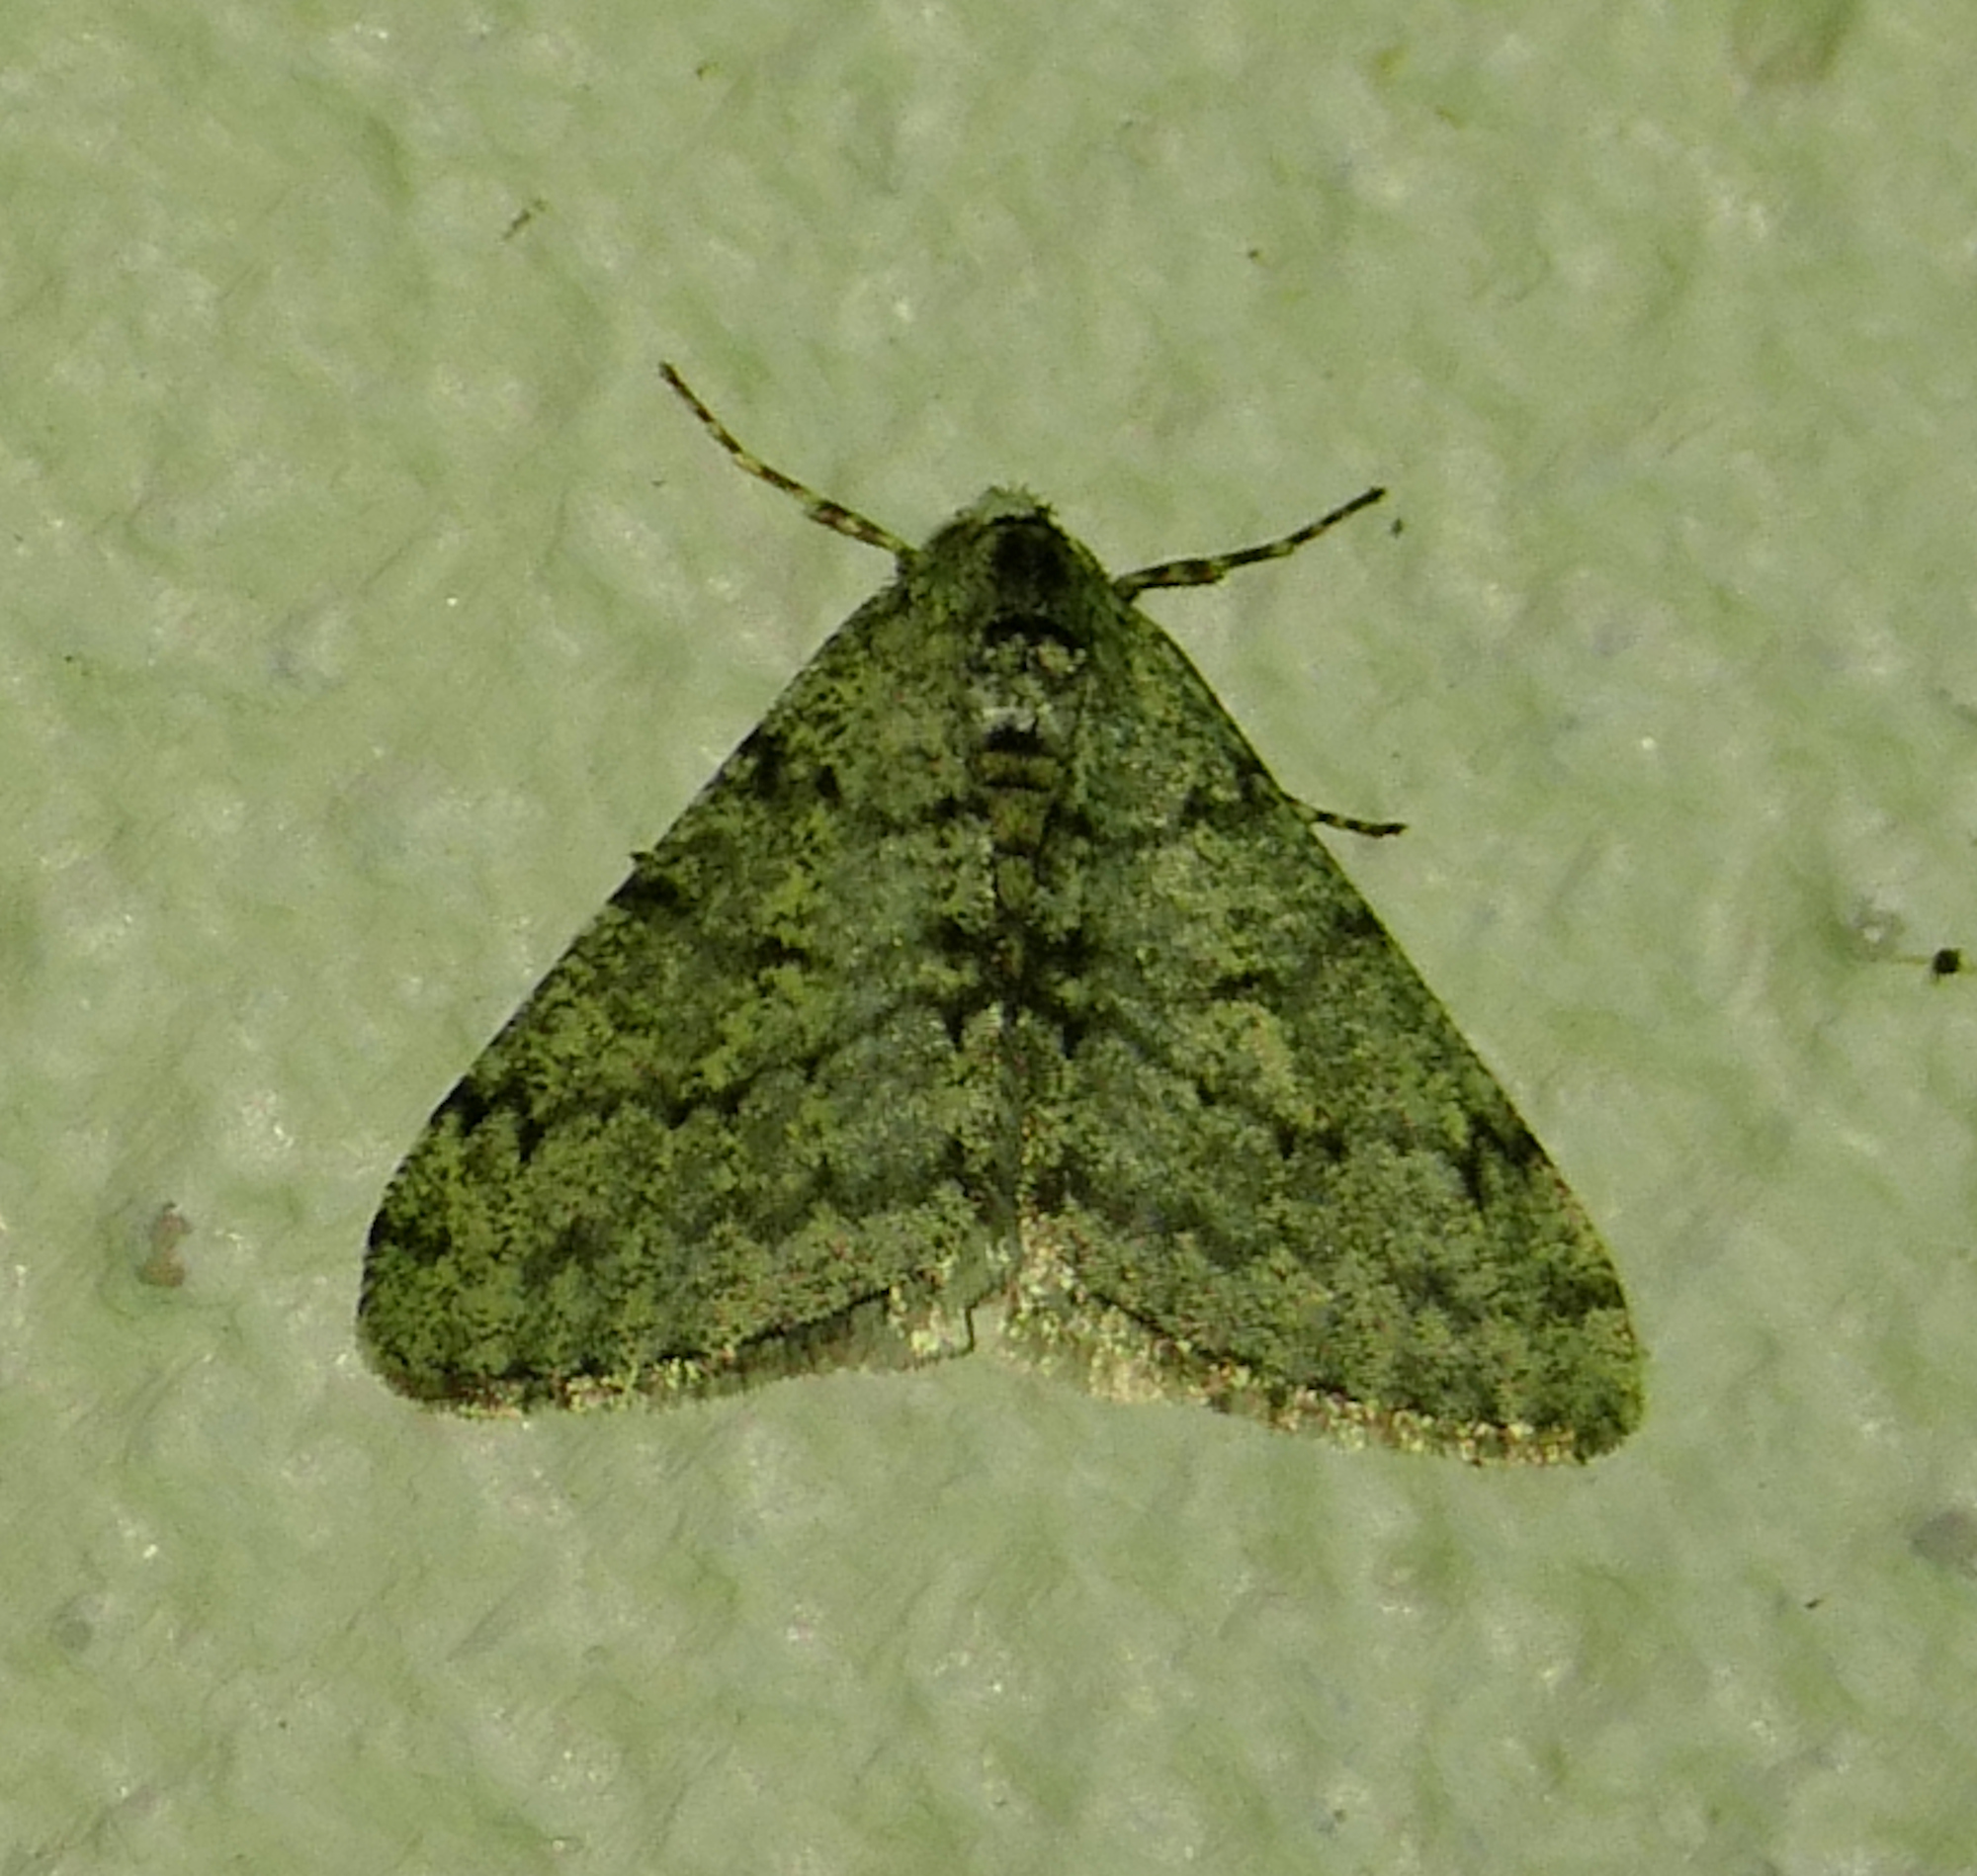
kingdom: Animalia
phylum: Arthropoda
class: Insecta
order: Lepidoptera
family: Geometridae
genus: Phigalia
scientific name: Phigalia strigataria
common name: Small phigalia
